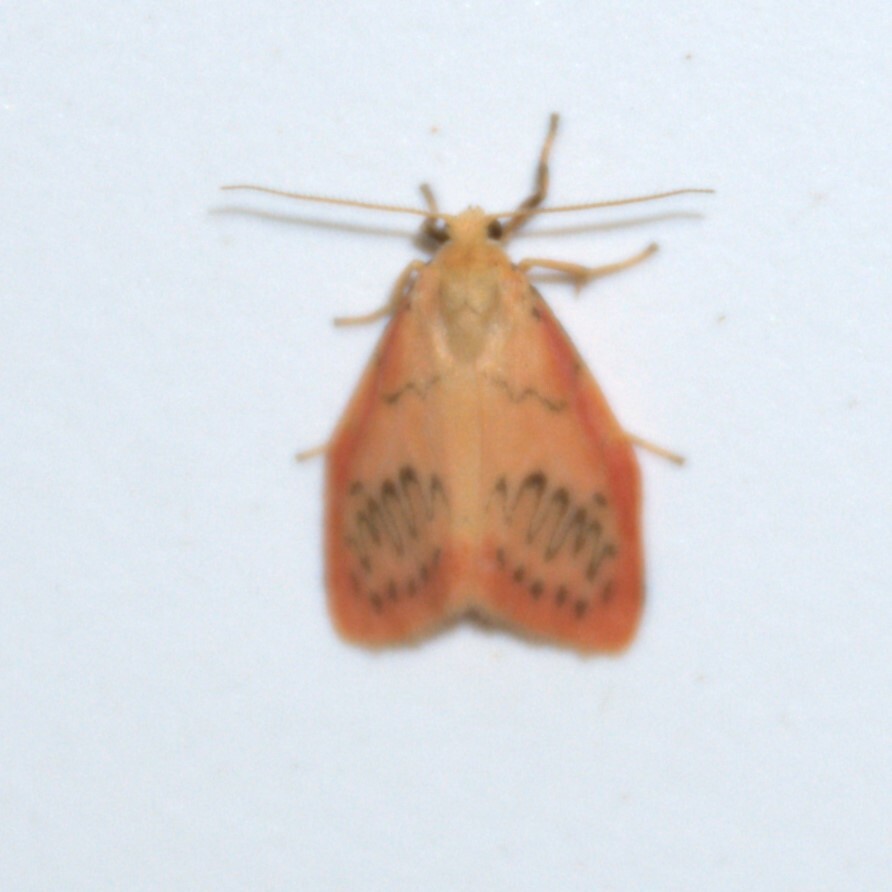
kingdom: Animalia
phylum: Arthropoda
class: Insecta
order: Lepidoptera
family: Erebidae
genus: Miltochrista
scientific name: Miltochrista miniata
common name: Rosy footman
